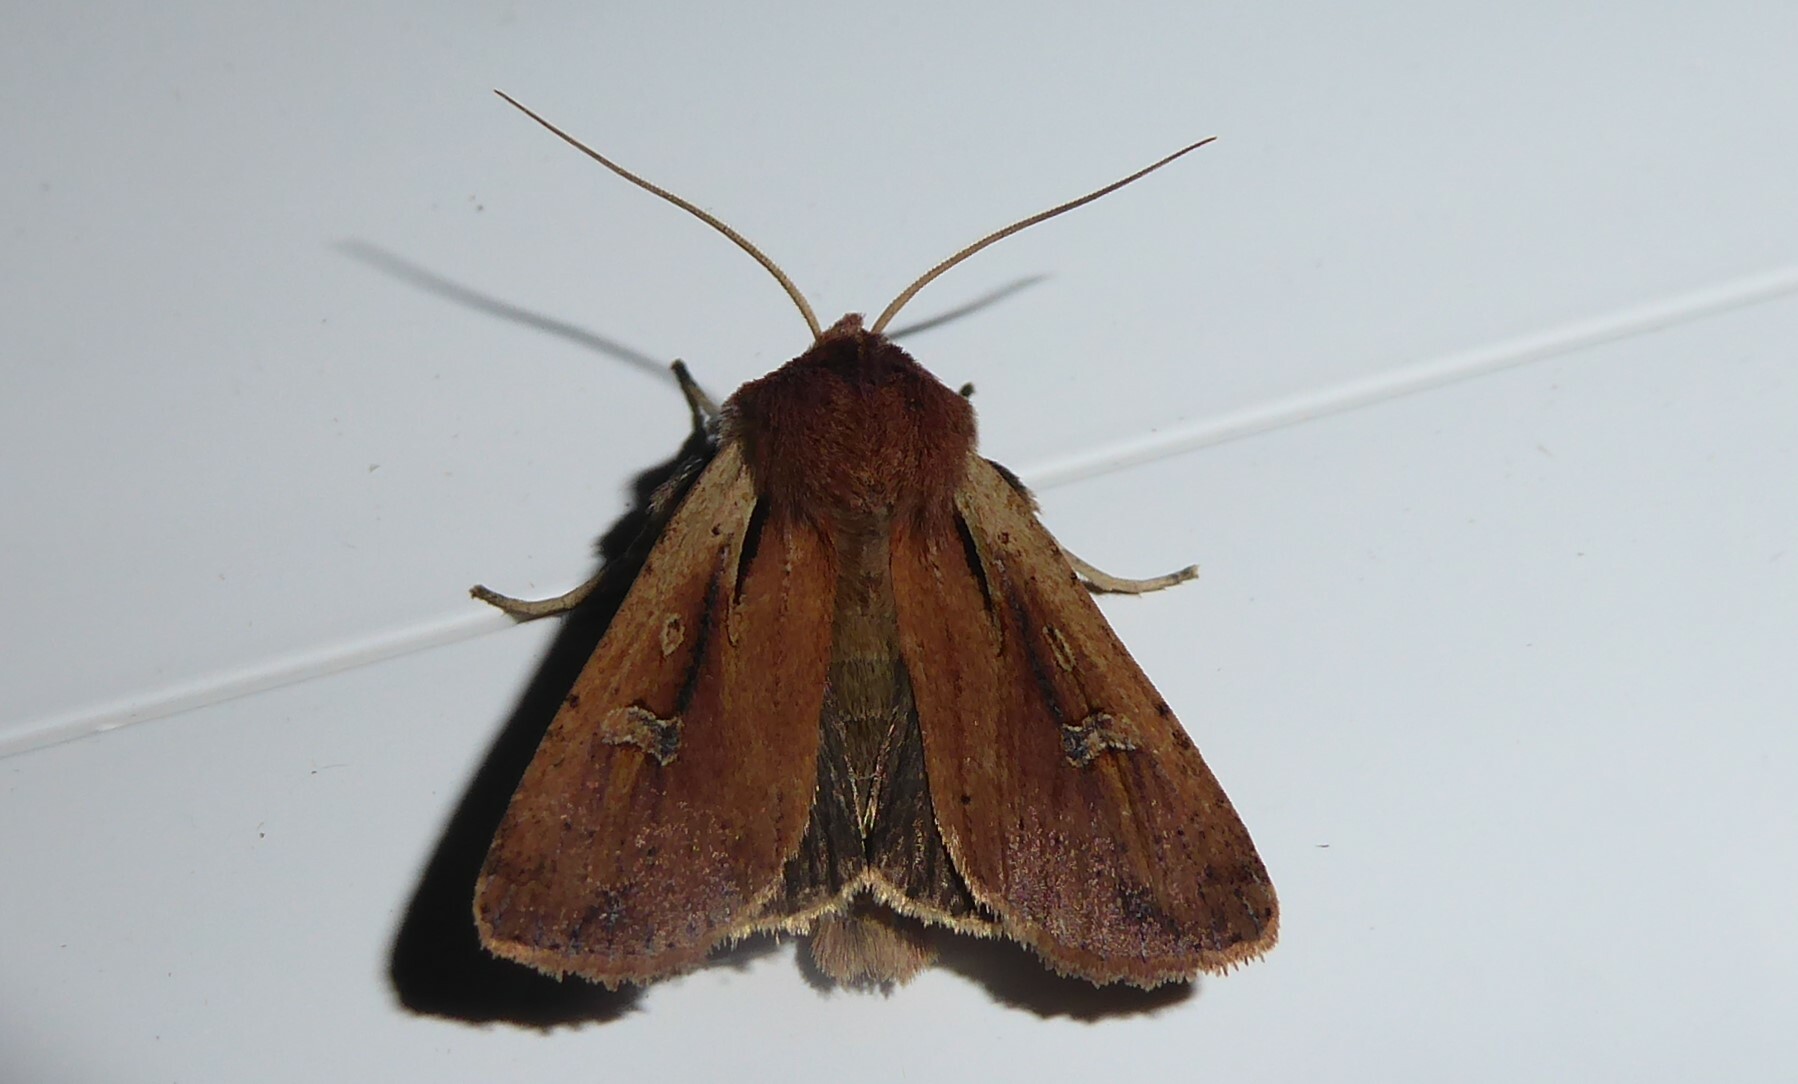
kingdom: Animalia
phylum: Arthropoda
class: Insecta
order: Lepidoptera
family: Noctuidae
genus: Ichneutica
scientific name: Ichneutica atristriga
